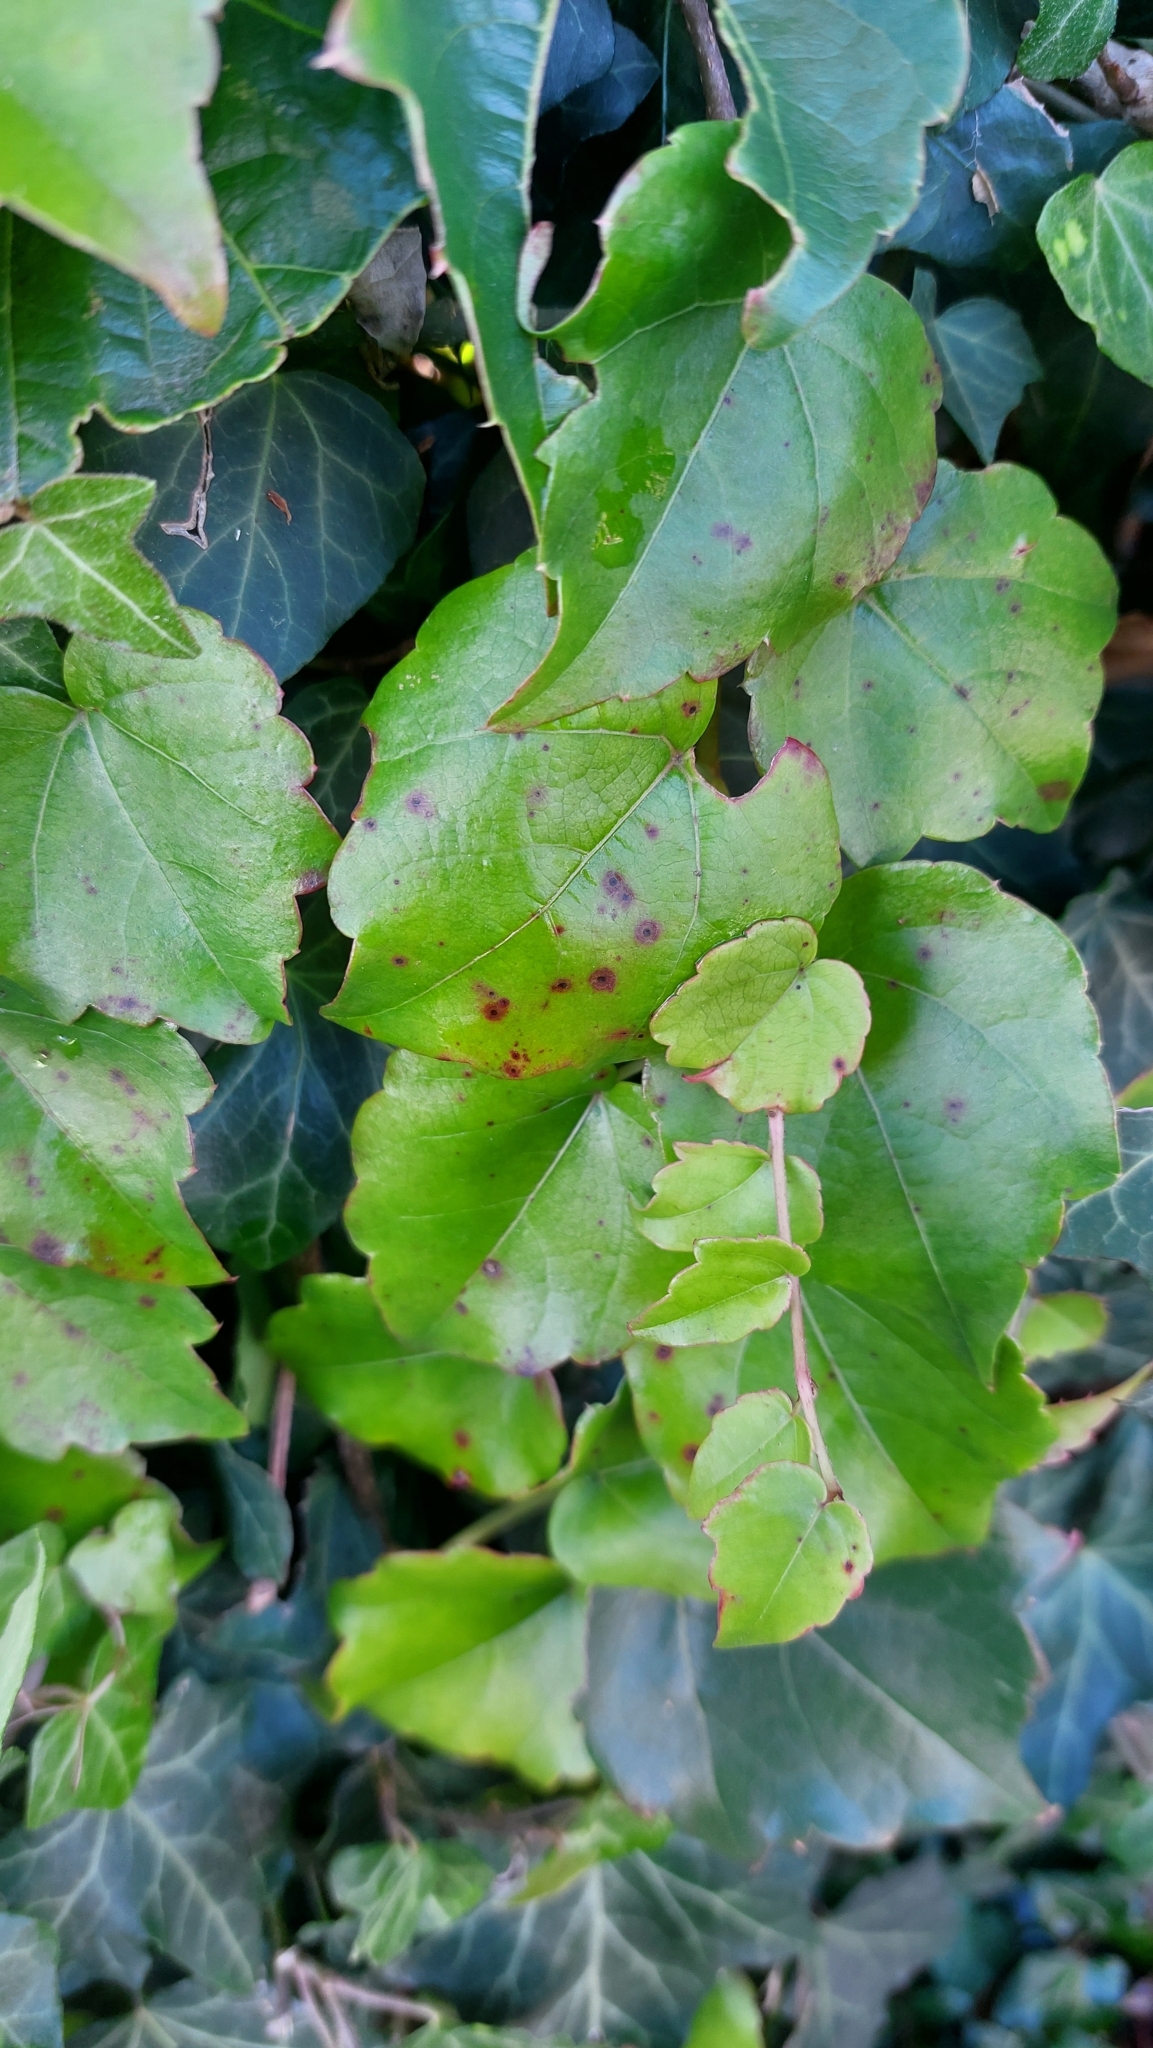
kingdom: Plantae
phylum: Tracheophyta
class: Magnoliopsida
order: Vitales
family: Vitaceae
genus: Parthenocissus
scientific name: Parthenocissus tricuspidata
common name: Boston ivy
